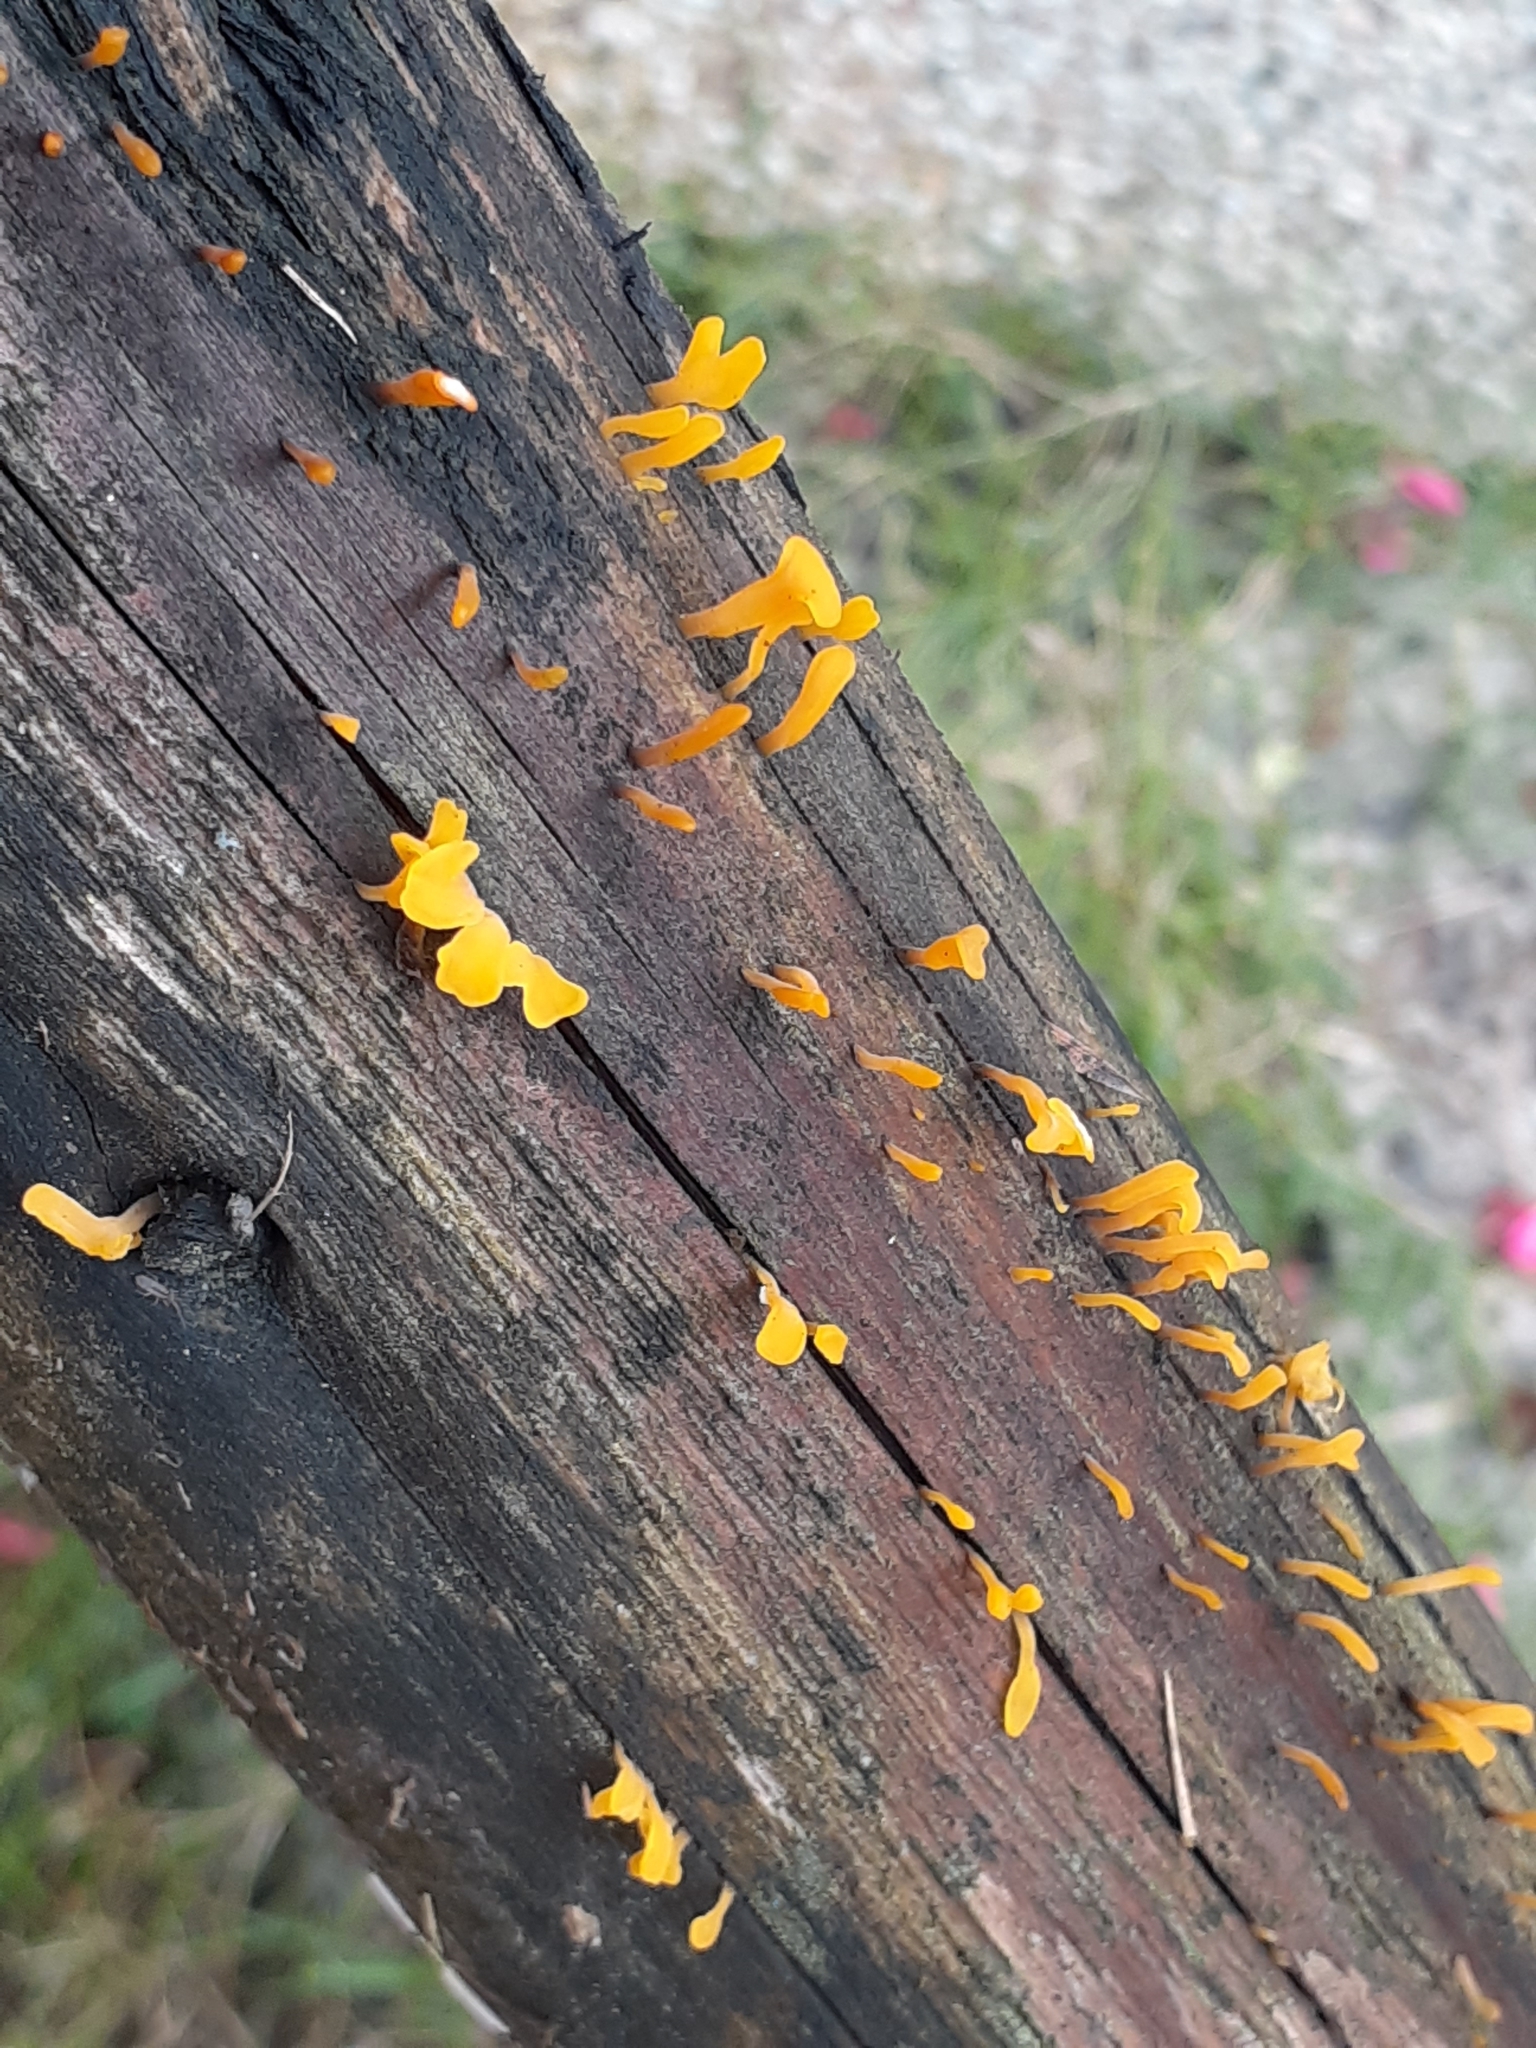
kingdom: Fungi
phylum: Basidiomycota
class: Dacrymycetes
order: Dacrymycetales
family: Dacrymycetaceae
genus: Dacrymyces
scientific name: Dacrymyces spathularius
